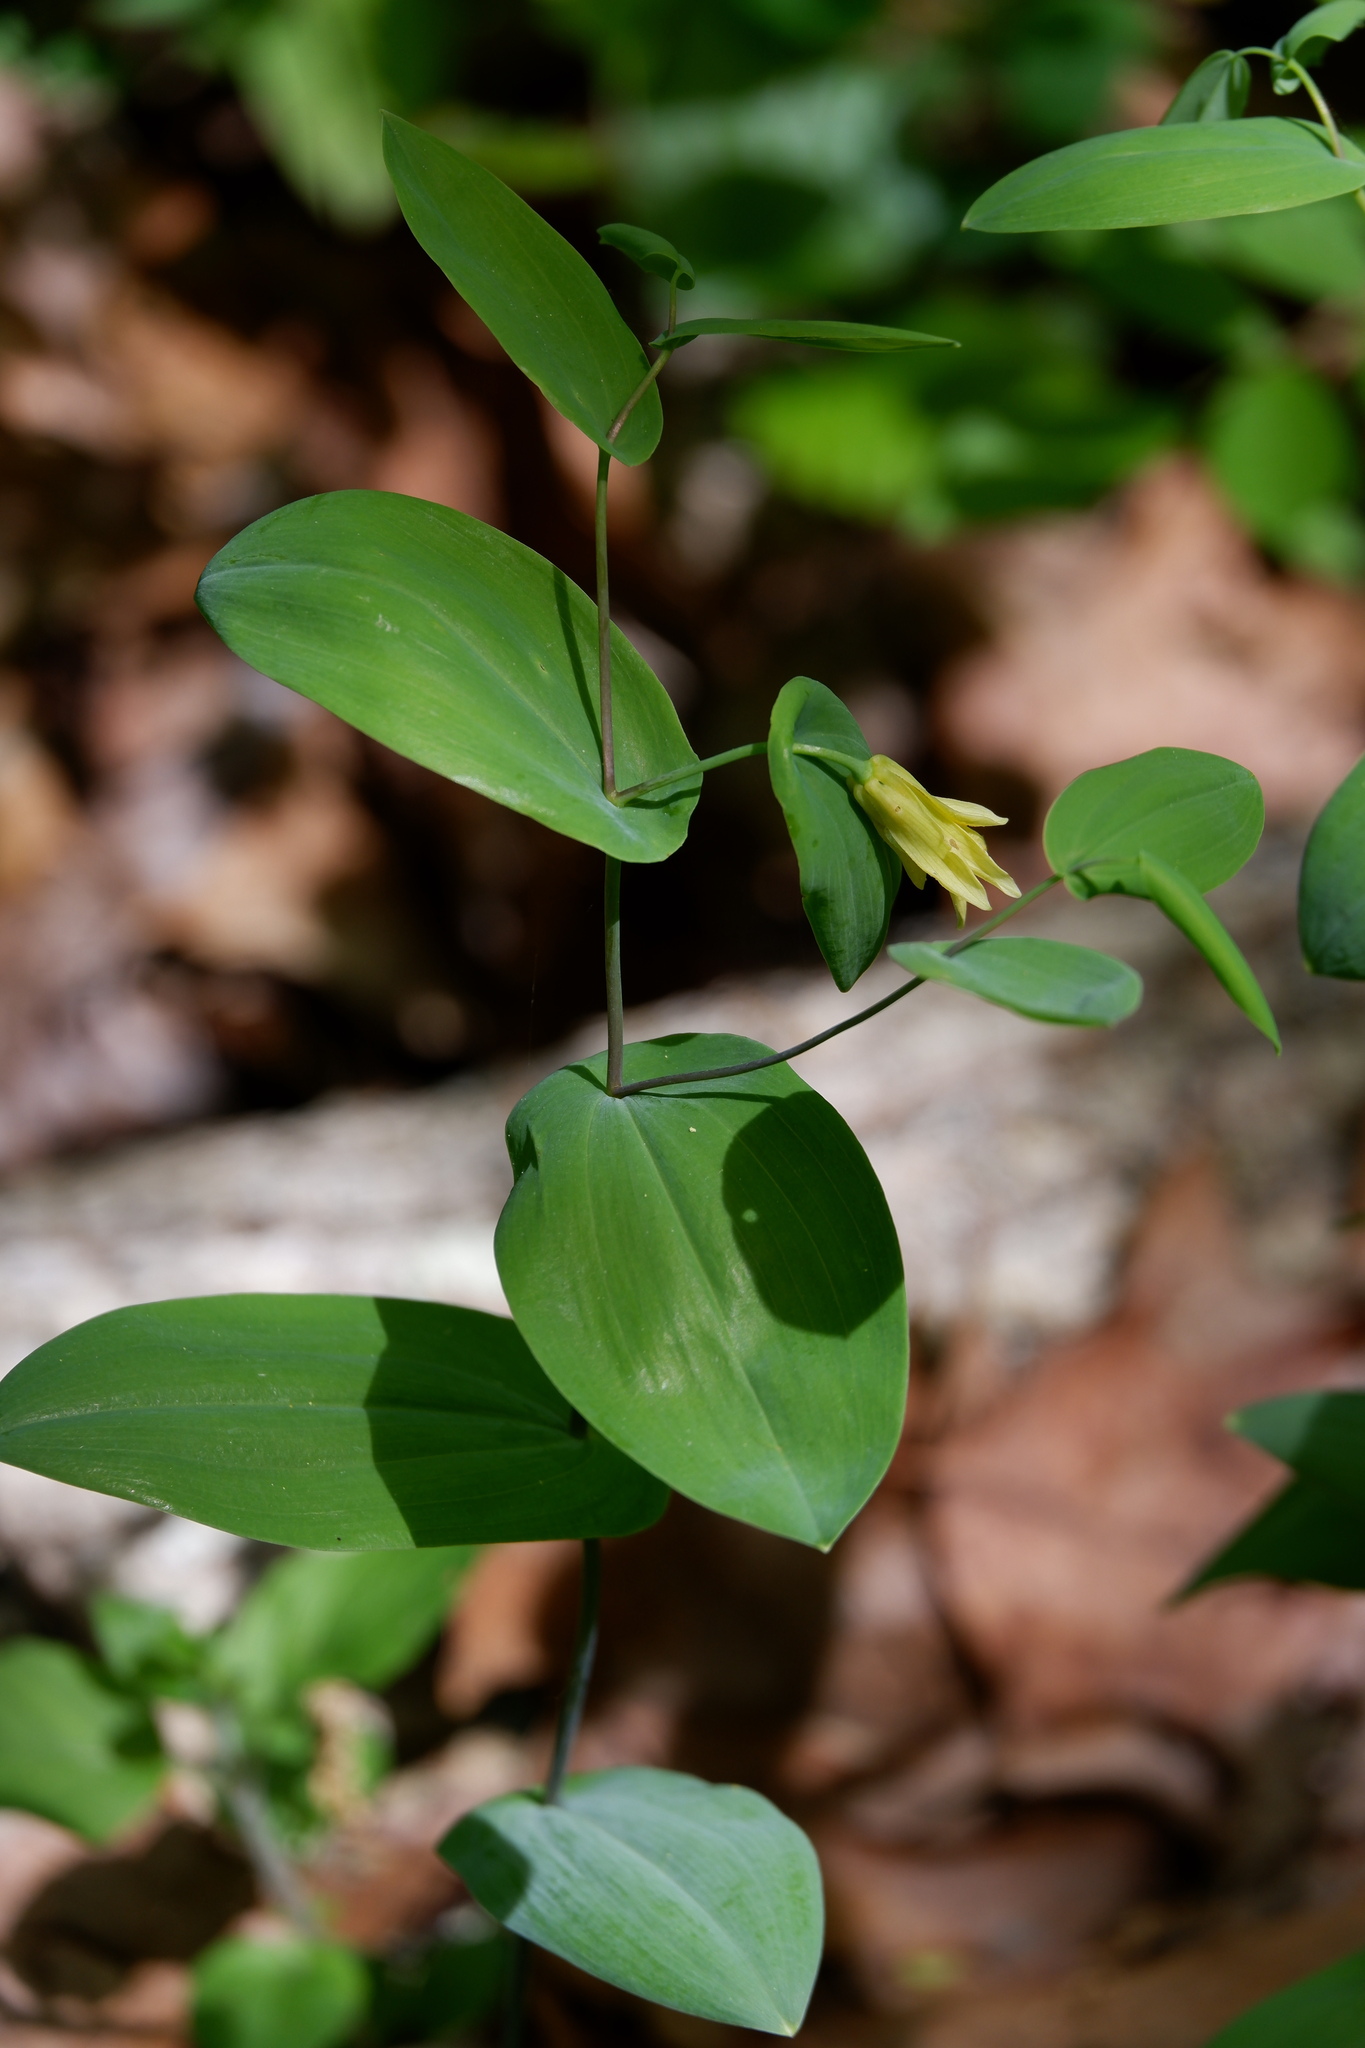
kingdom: Plantae
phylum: Tracheophyta
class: Liliopsida
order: Liliales
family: Colchicaceae
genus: Uvularia
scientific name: Uvularia perfoliata
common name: Perfoliate bellwort
